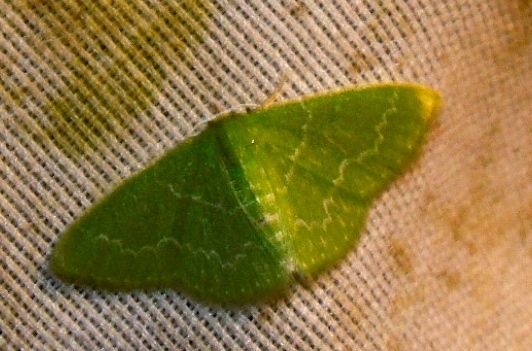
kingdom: Animalia
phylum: Arthropoda
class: Insecta
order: Lepidoptera
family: Geometridae
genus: Synchlora
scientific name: Synchlora
